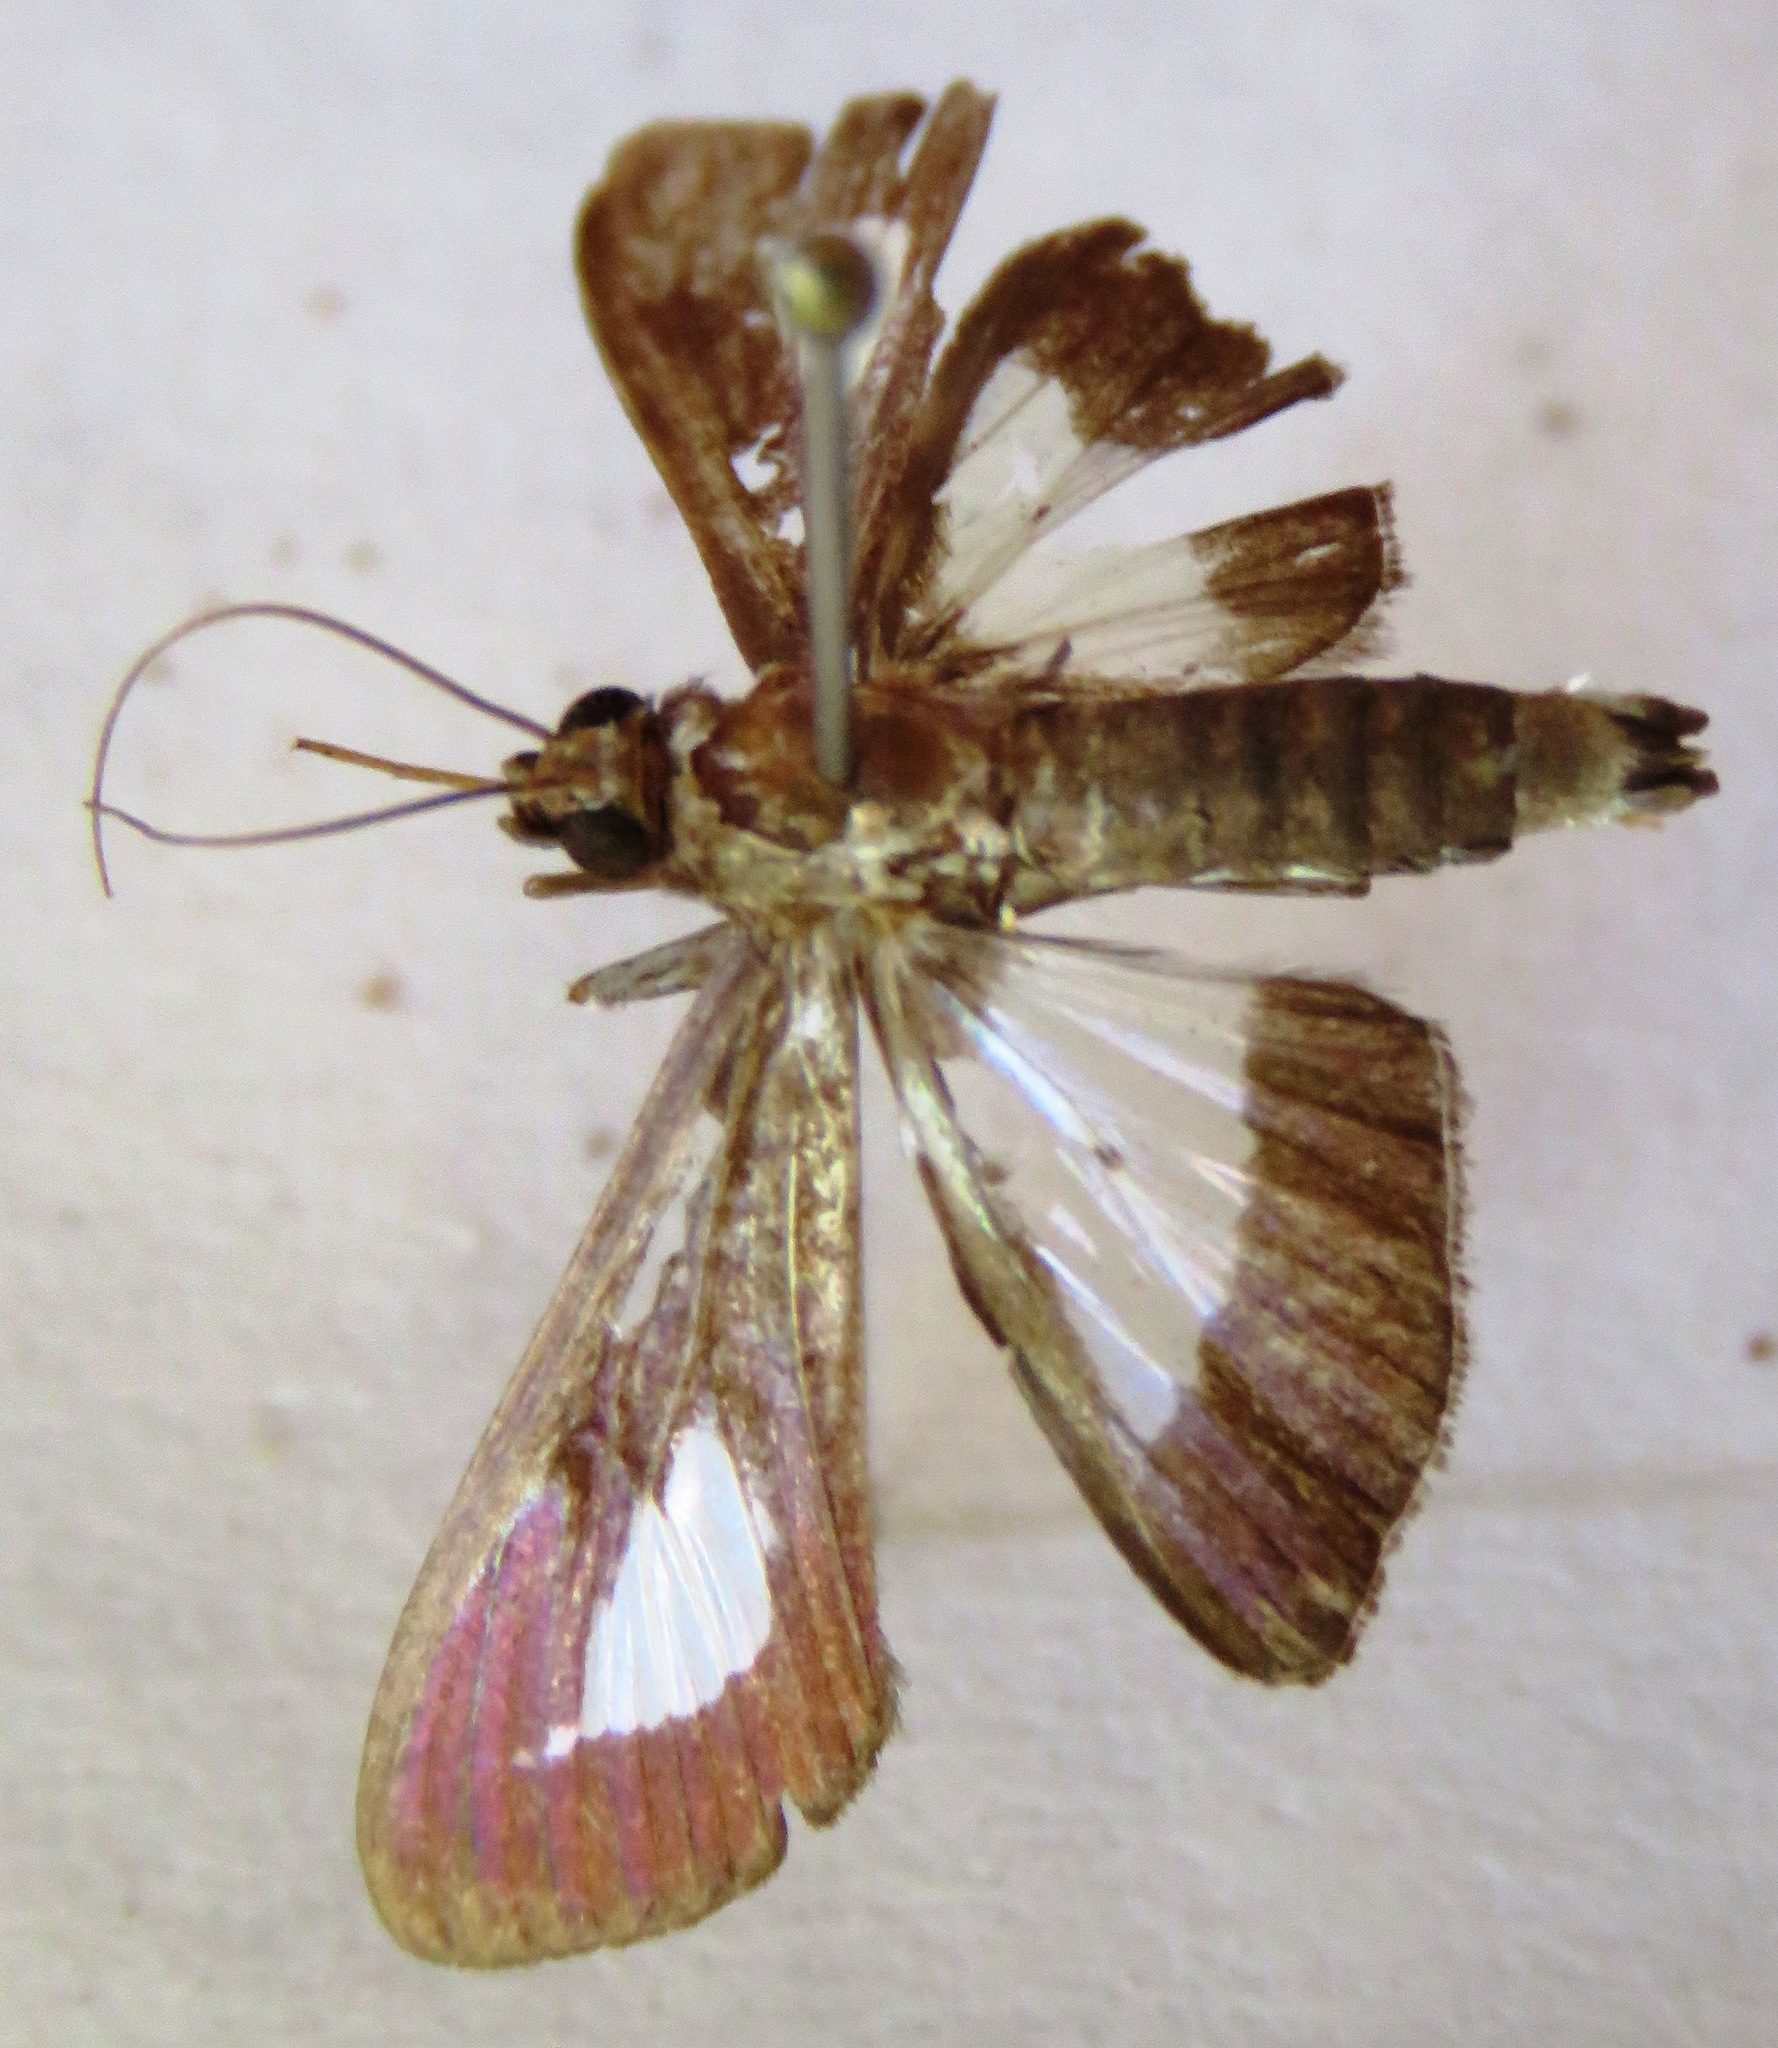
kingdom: Animalia
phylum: Arthropoda
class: Insecta
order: Lepidoptera
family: Crambidae
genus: Diaphania
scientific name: Diaphania
